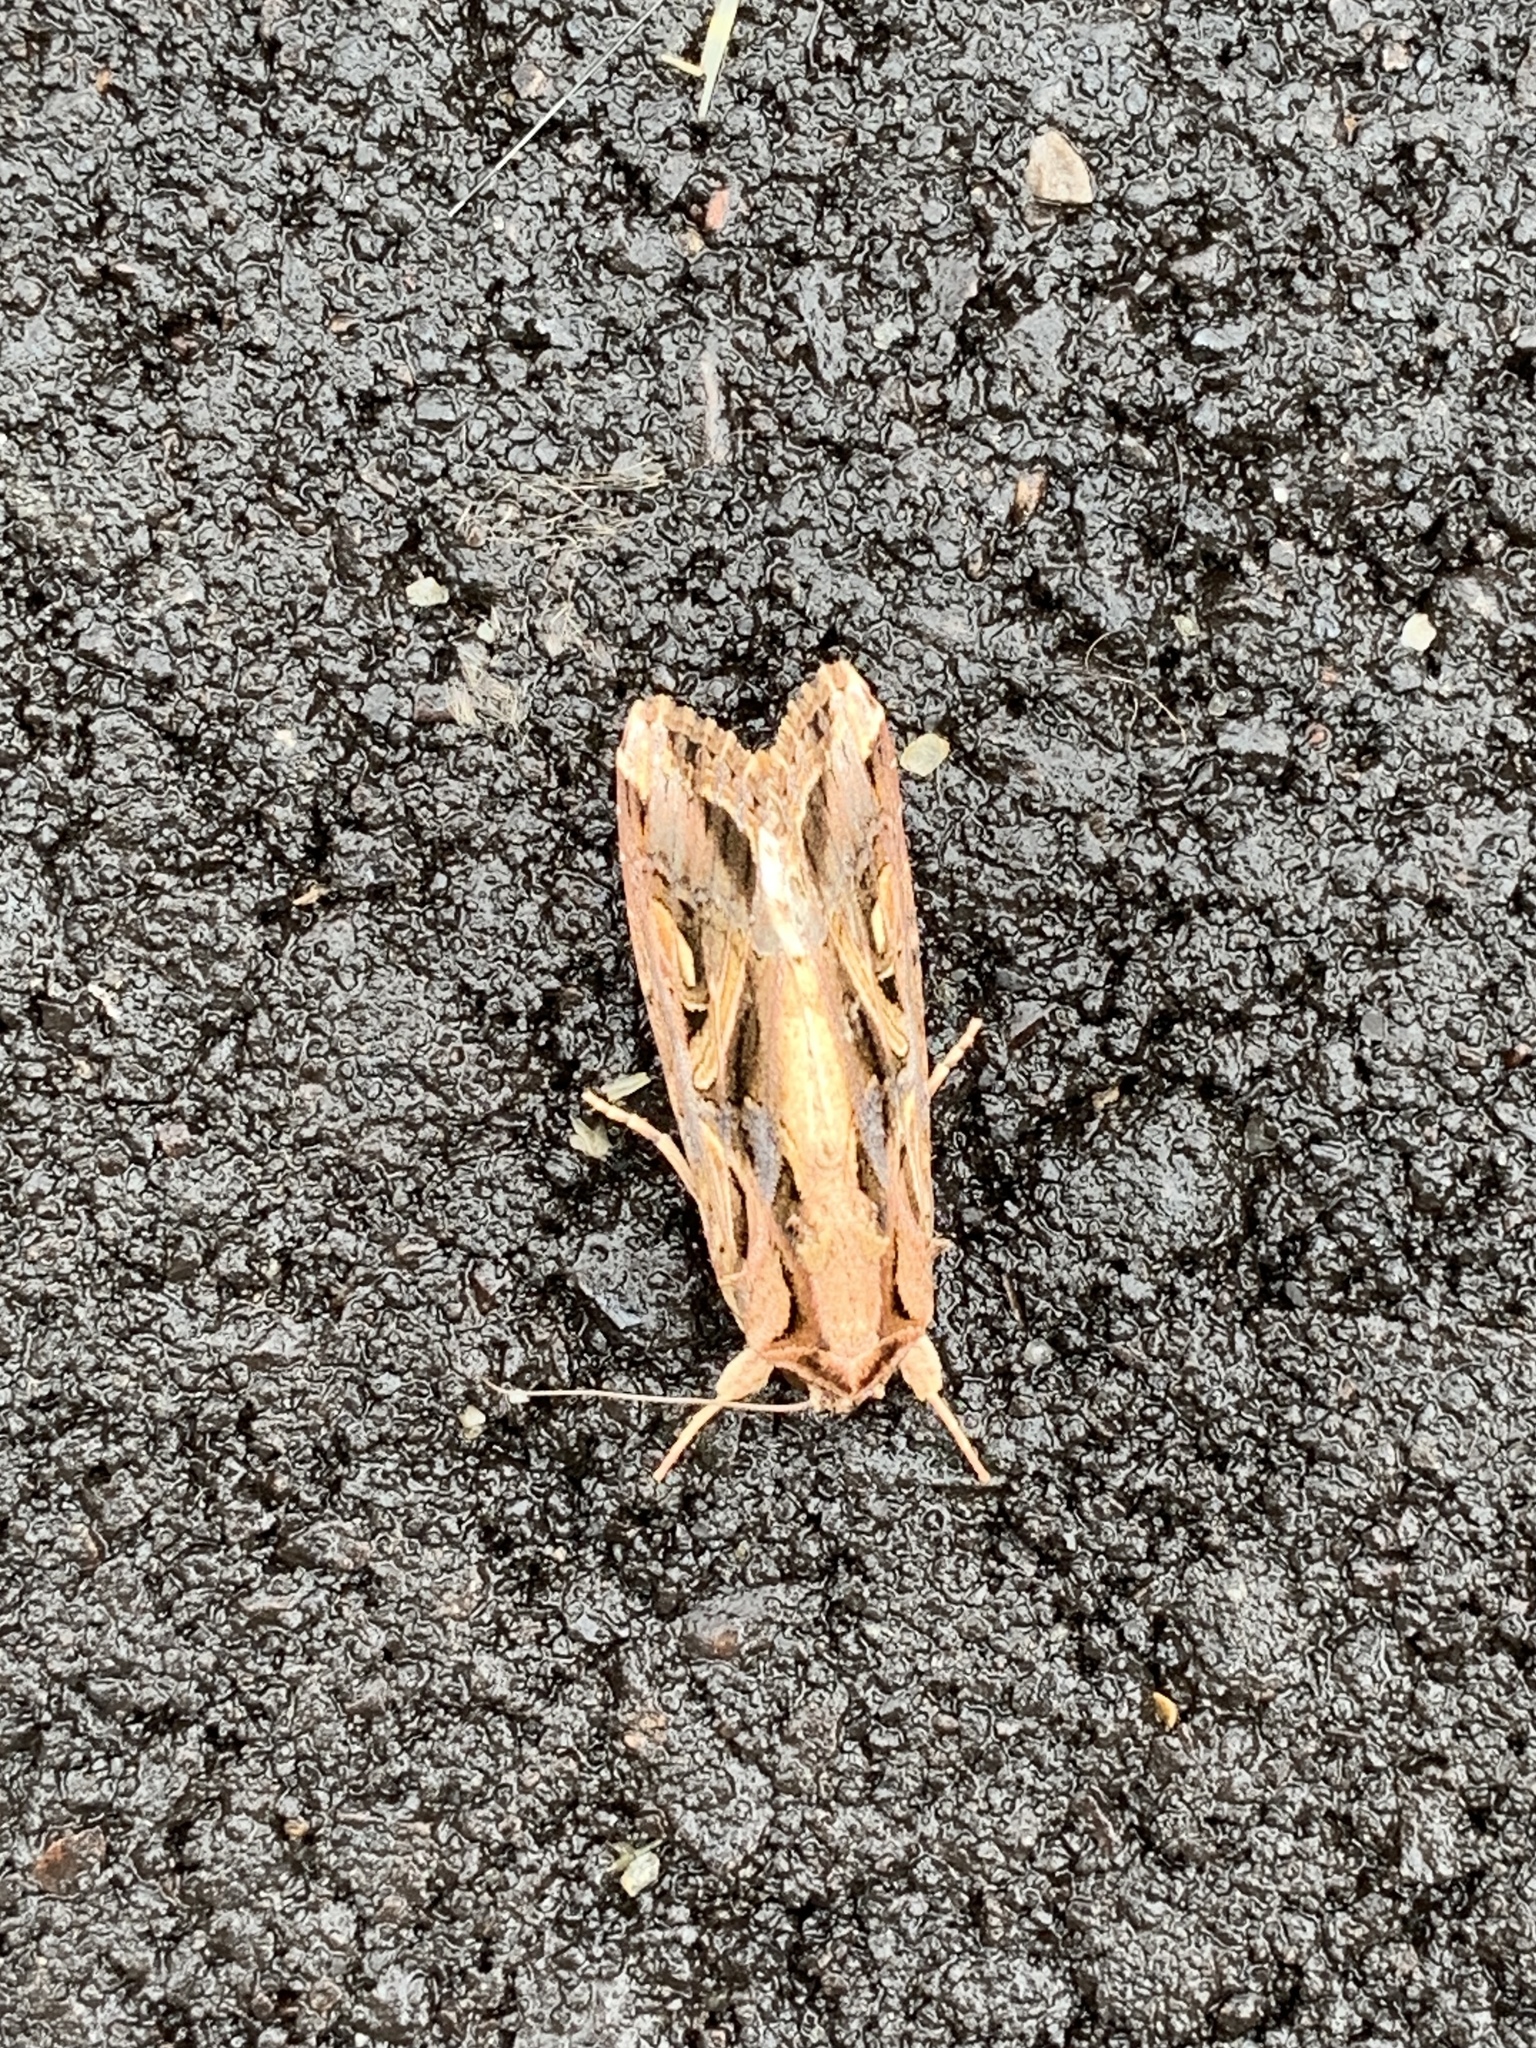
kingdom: Animalia
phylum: Arthropoda
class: Insecta
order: Lepidoptera
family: Noctuidae
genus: Spodoptera
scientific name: Spodoptera dolichos
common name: Sweetpotato armyworm
